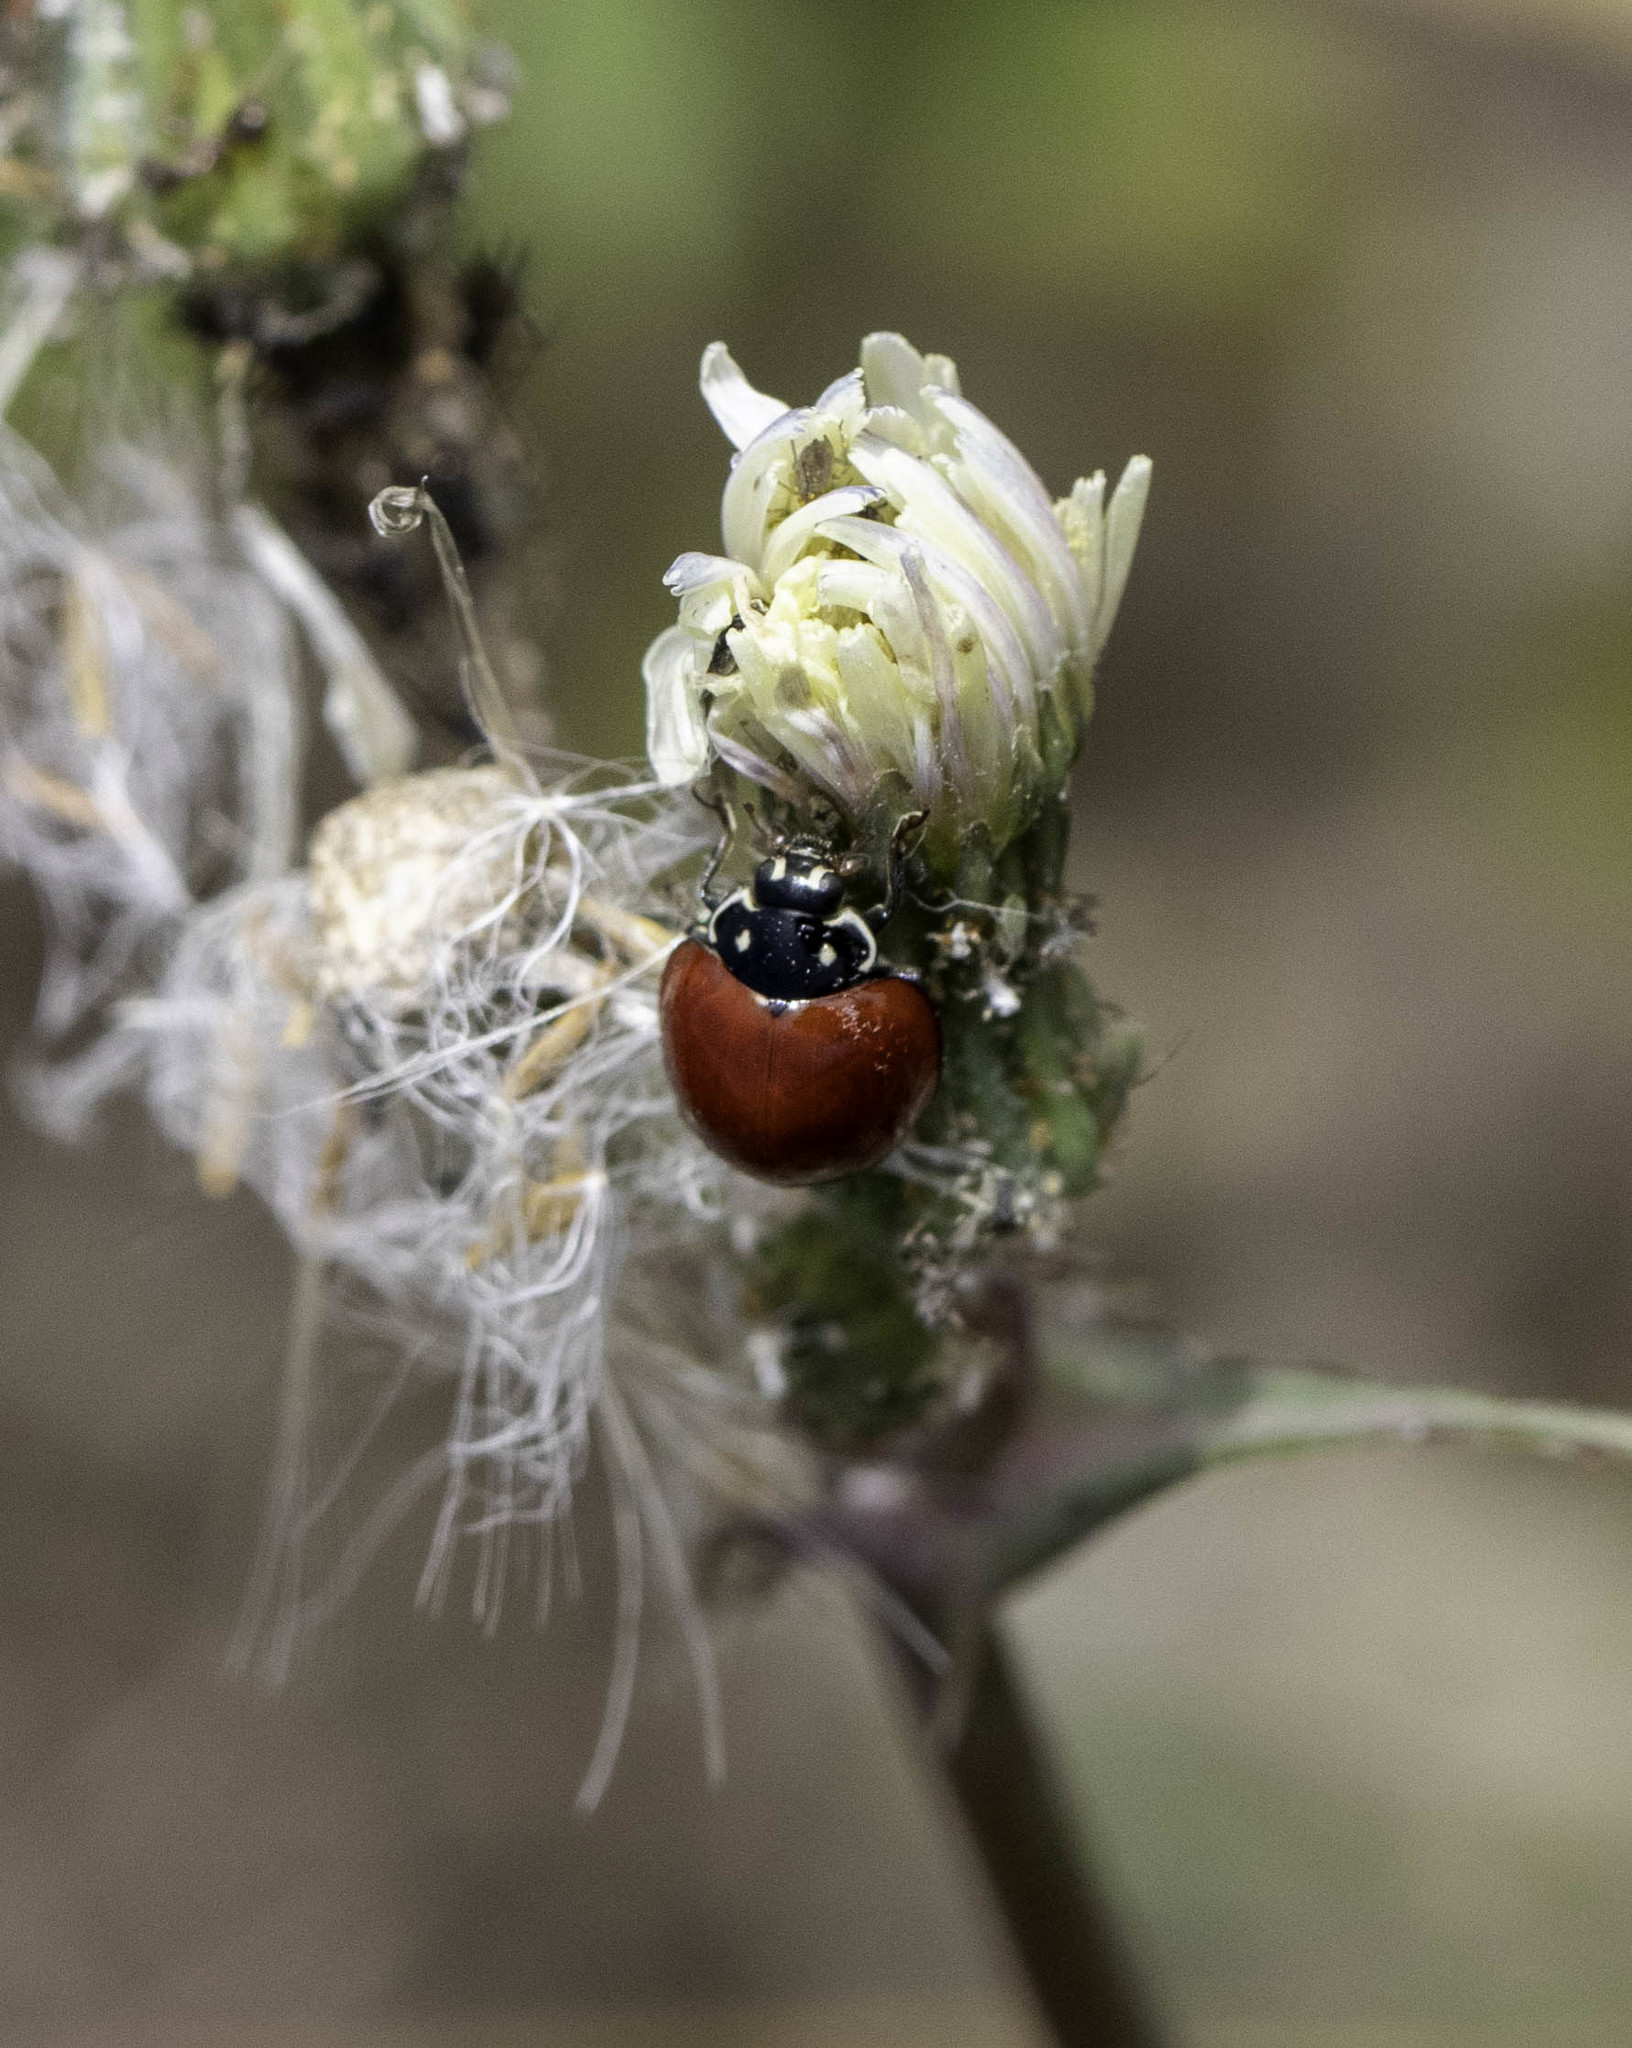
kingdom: Animalia
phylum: Arthropoda
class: Insecta
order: Coleoptera
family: Coccinellidae
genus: Cycloneda
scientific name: Cycloneda sanguinea
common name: Ladybird beetle
